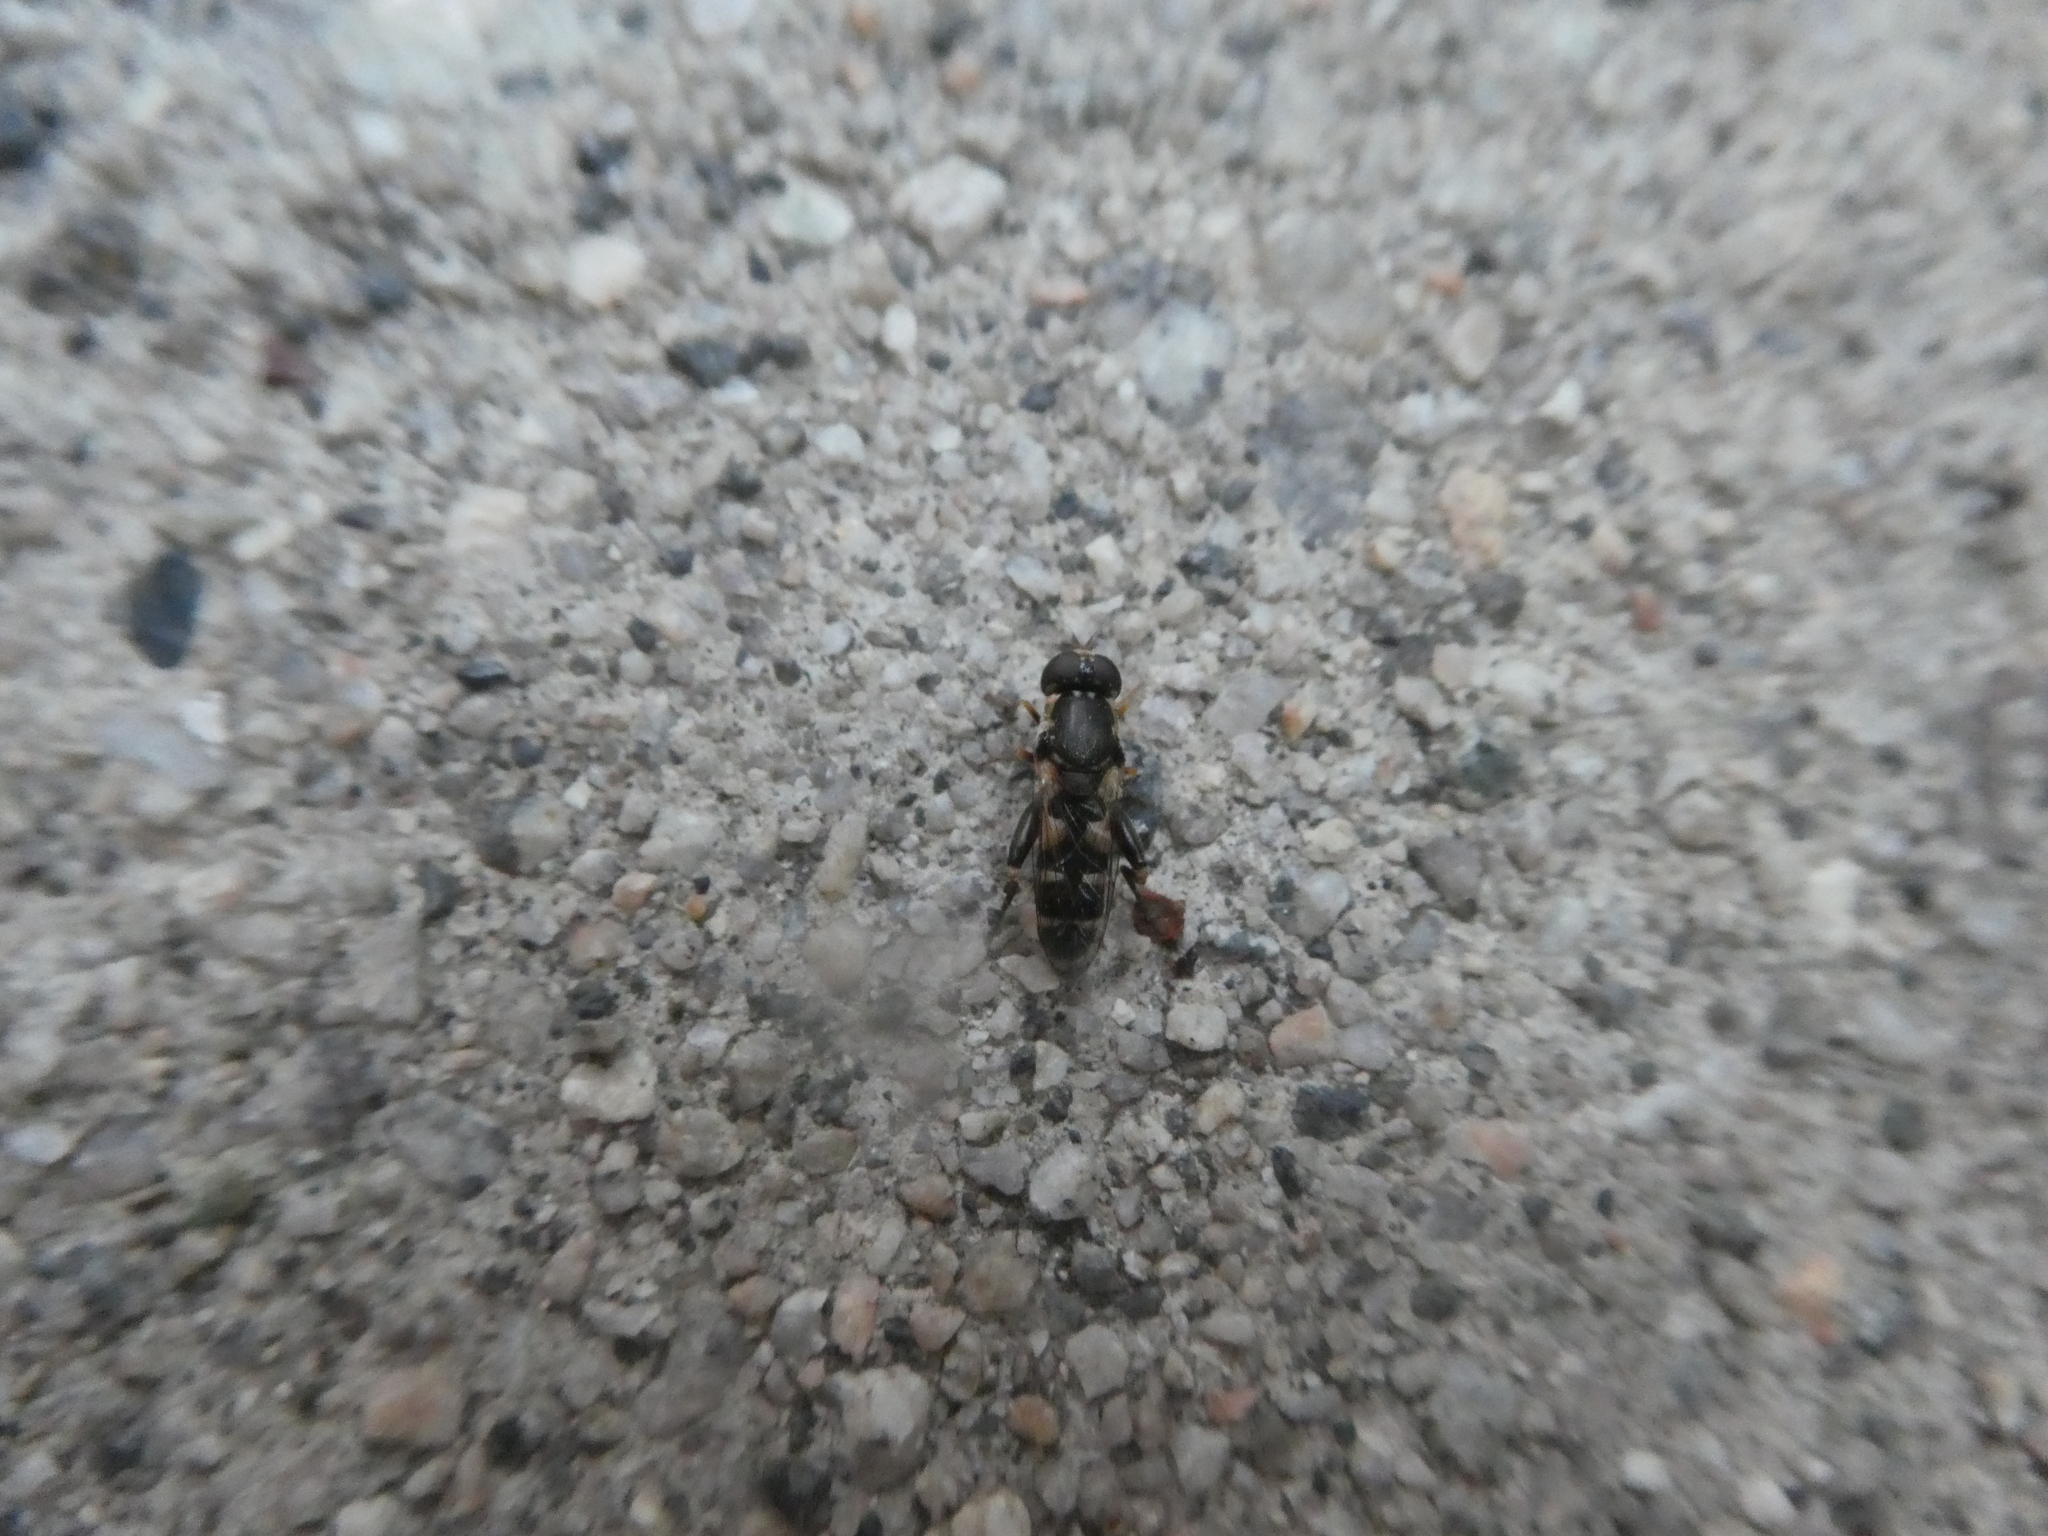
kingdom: Animalia
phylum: Arthropoda
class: Insecta
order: Diptera
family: Syrphidae
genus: Syritta
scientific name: Syritta pipiens
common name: Hover fly
